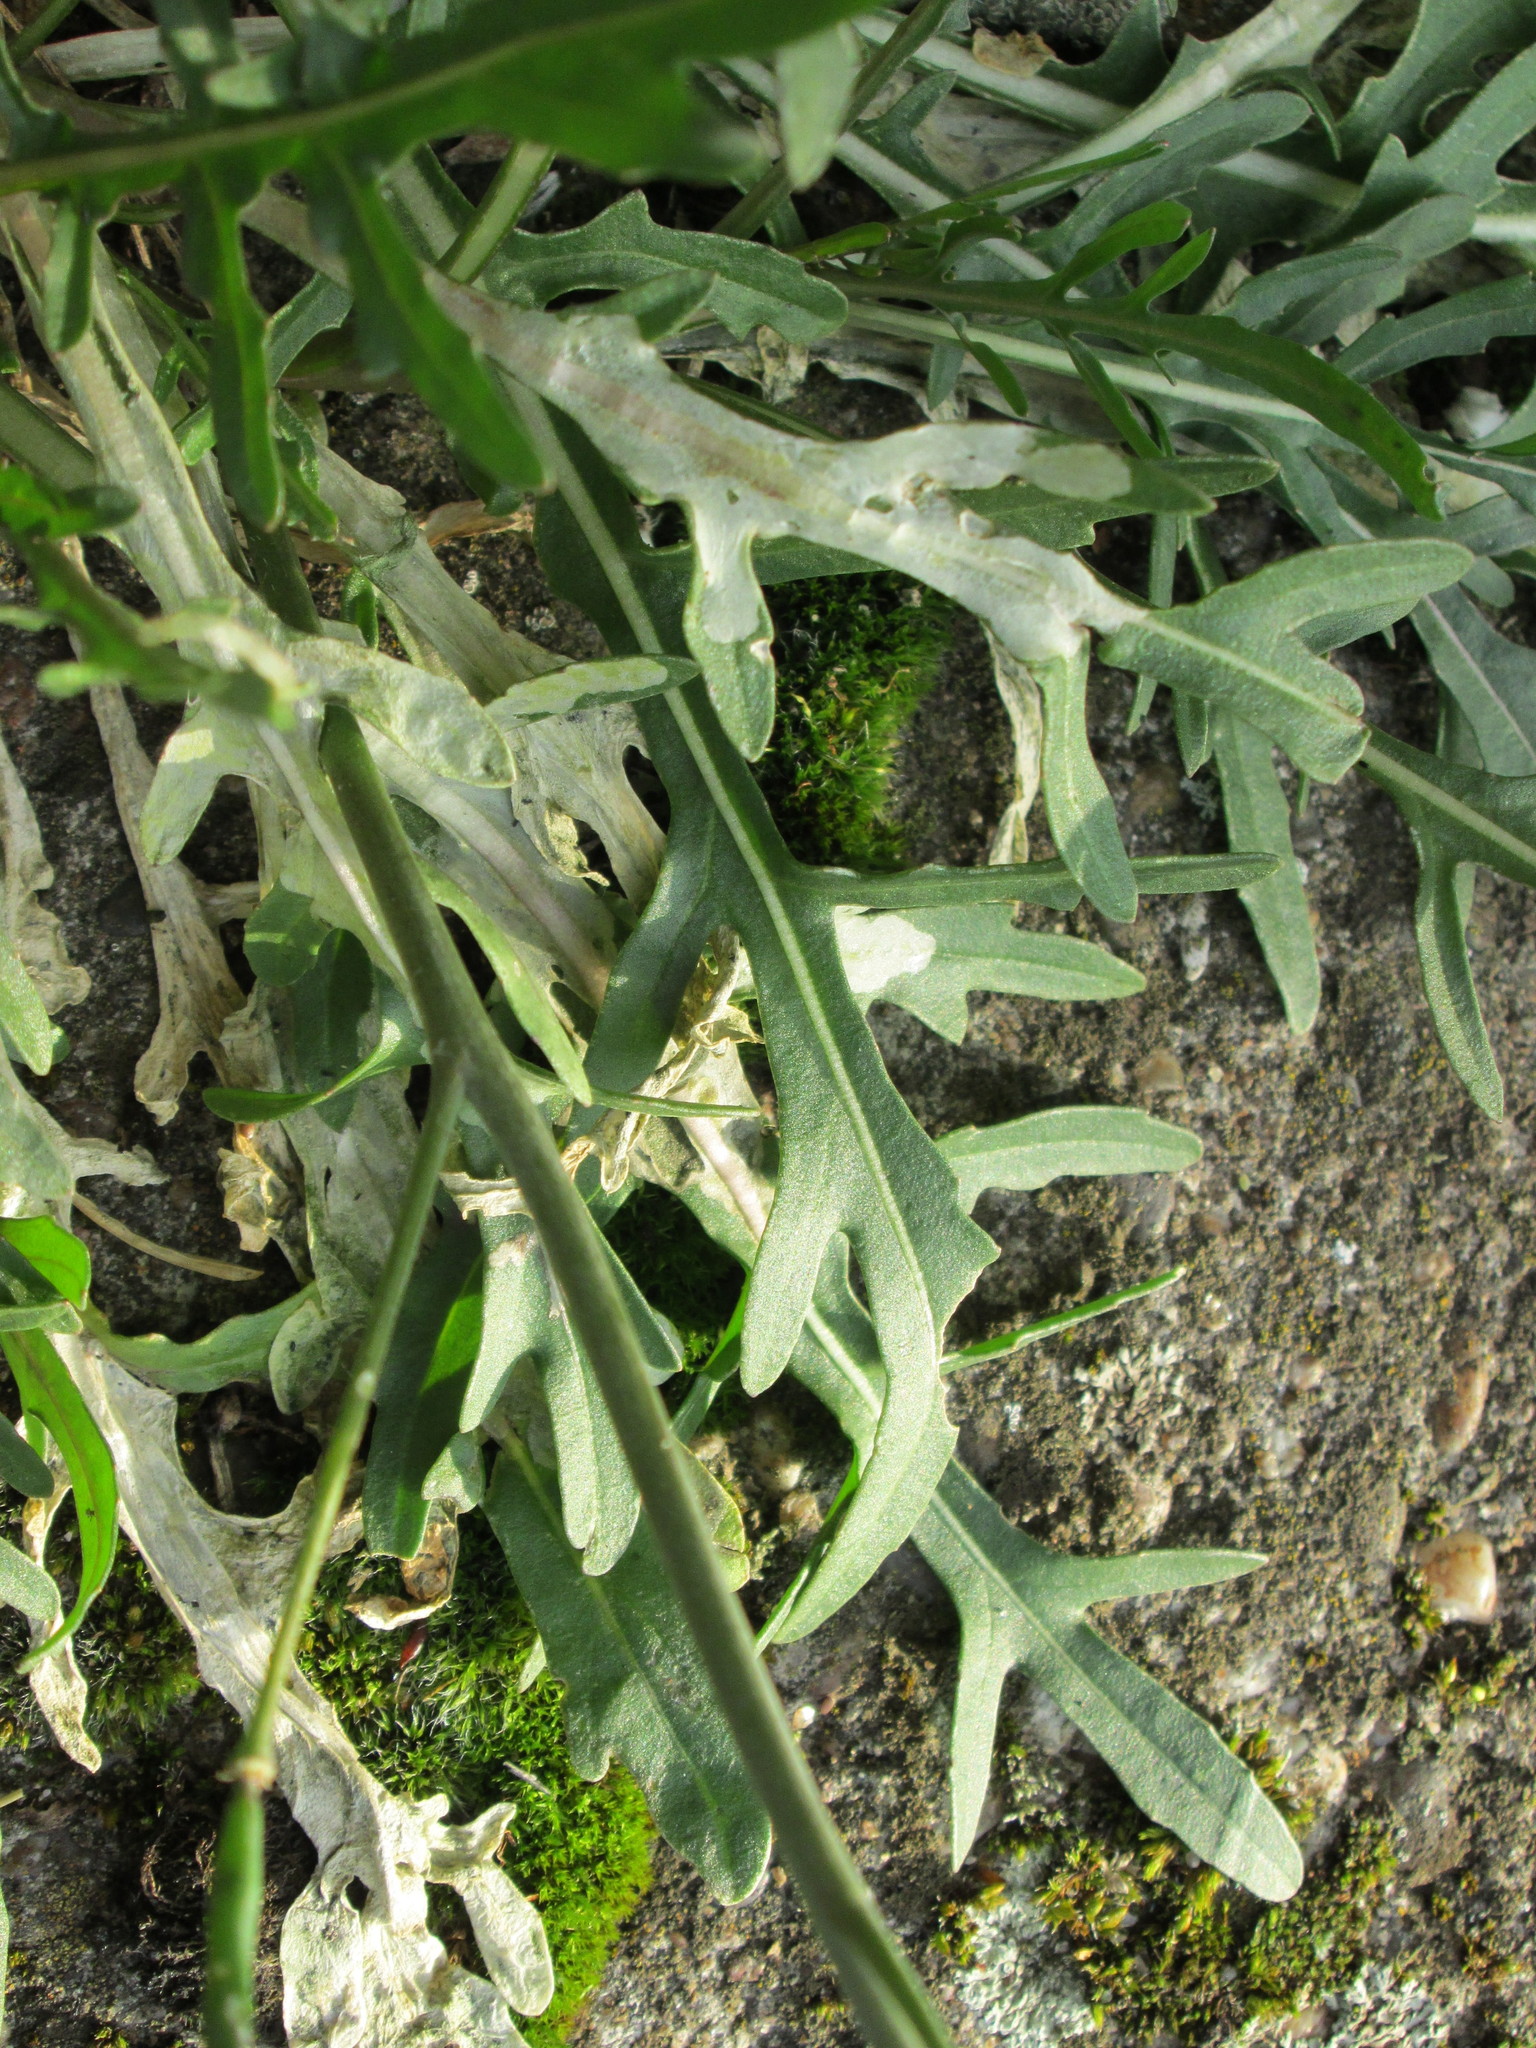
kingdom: Plantae
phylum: Tracheophyta
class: Magnoliopsida
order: Brassicales
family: Brassicaceae
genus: Diplotaxis
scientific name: Diplotaxis tenuifolia
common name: Perennial wall-rocket
